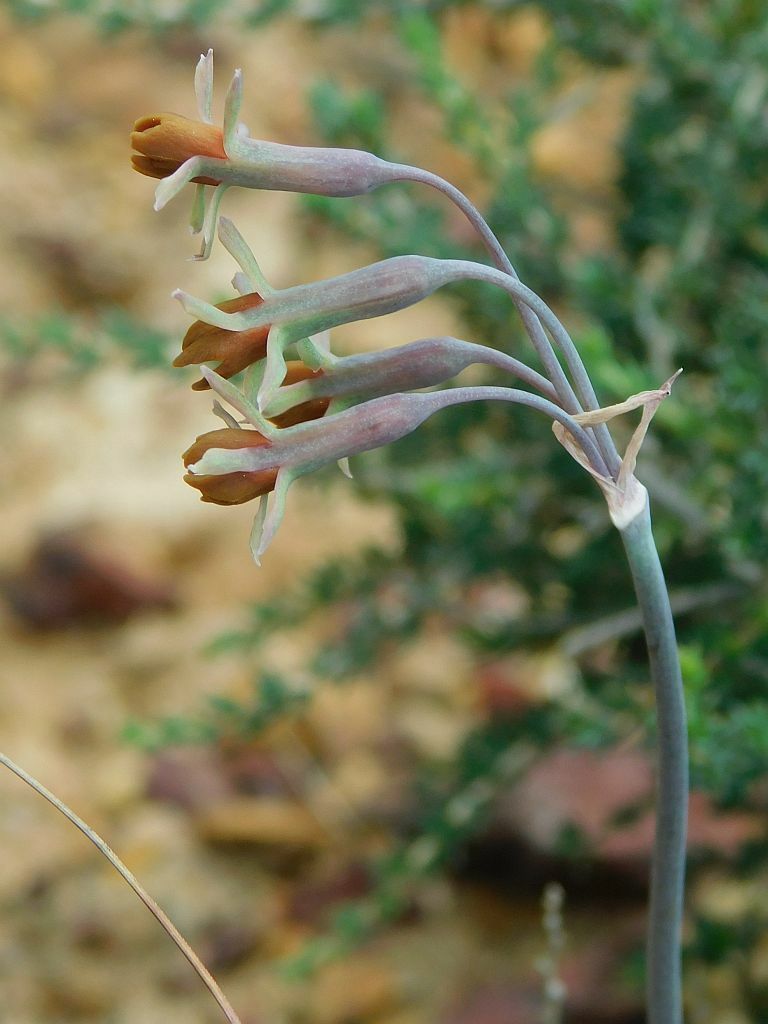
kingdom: Plantae
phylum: Tracheophyta
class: Liliopsida
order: Asparagales
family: Amaryllidaceae
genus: Tulbaghia
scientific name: Tulbaghia capensis
